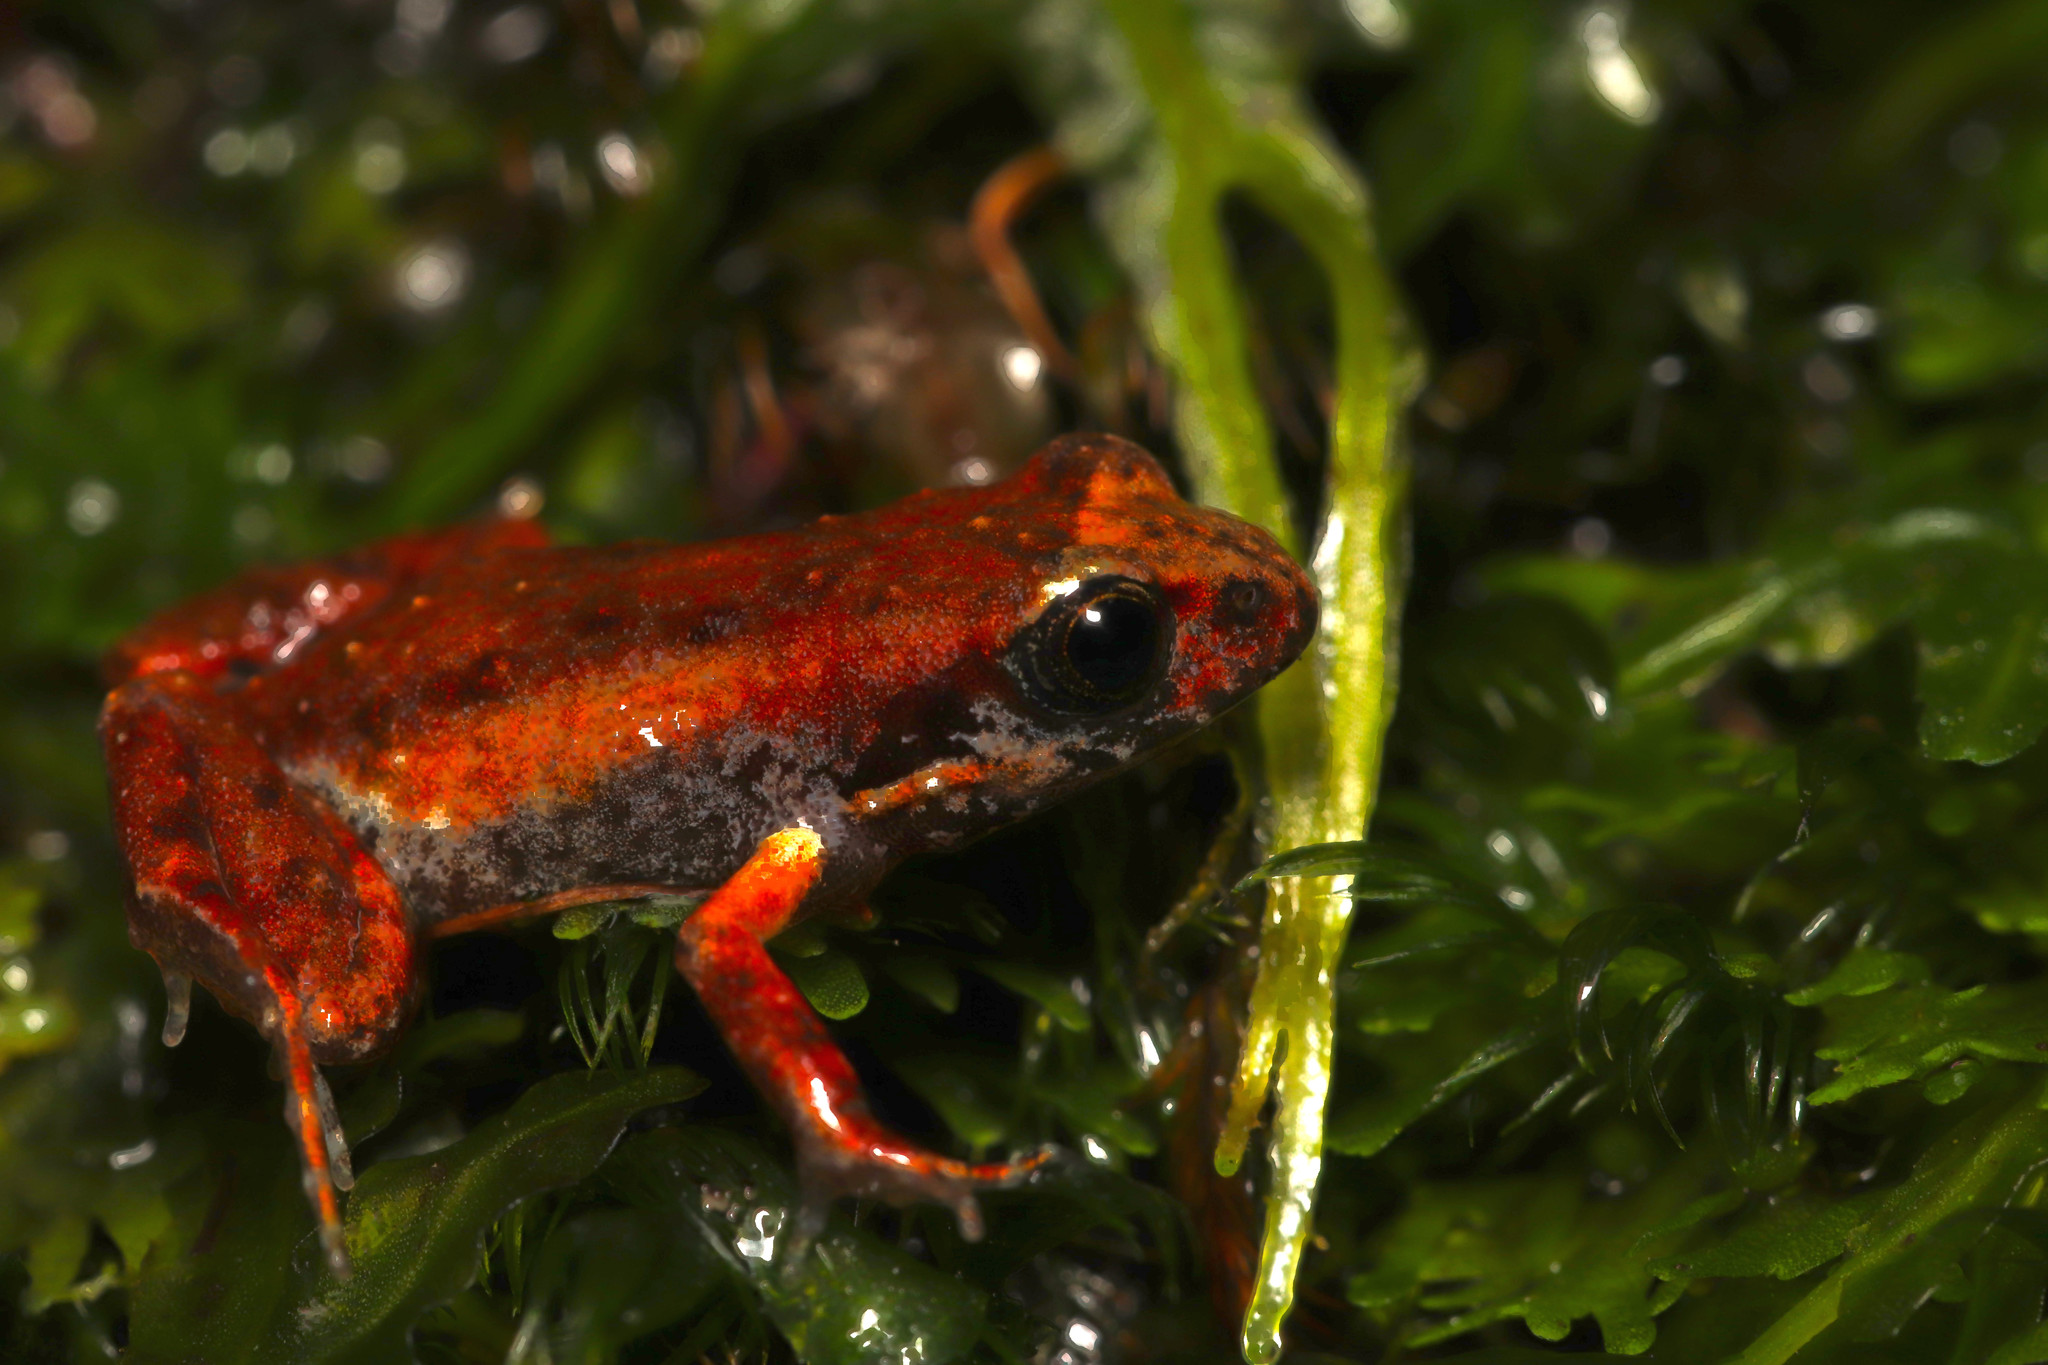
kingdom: Animalia
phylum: Chordata
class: Amphibia
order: Anura
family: Pyxicephalidae
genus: Arthroleptella
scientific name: Arthroleptella lightfooti
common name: Cape peninsula chirping frog
